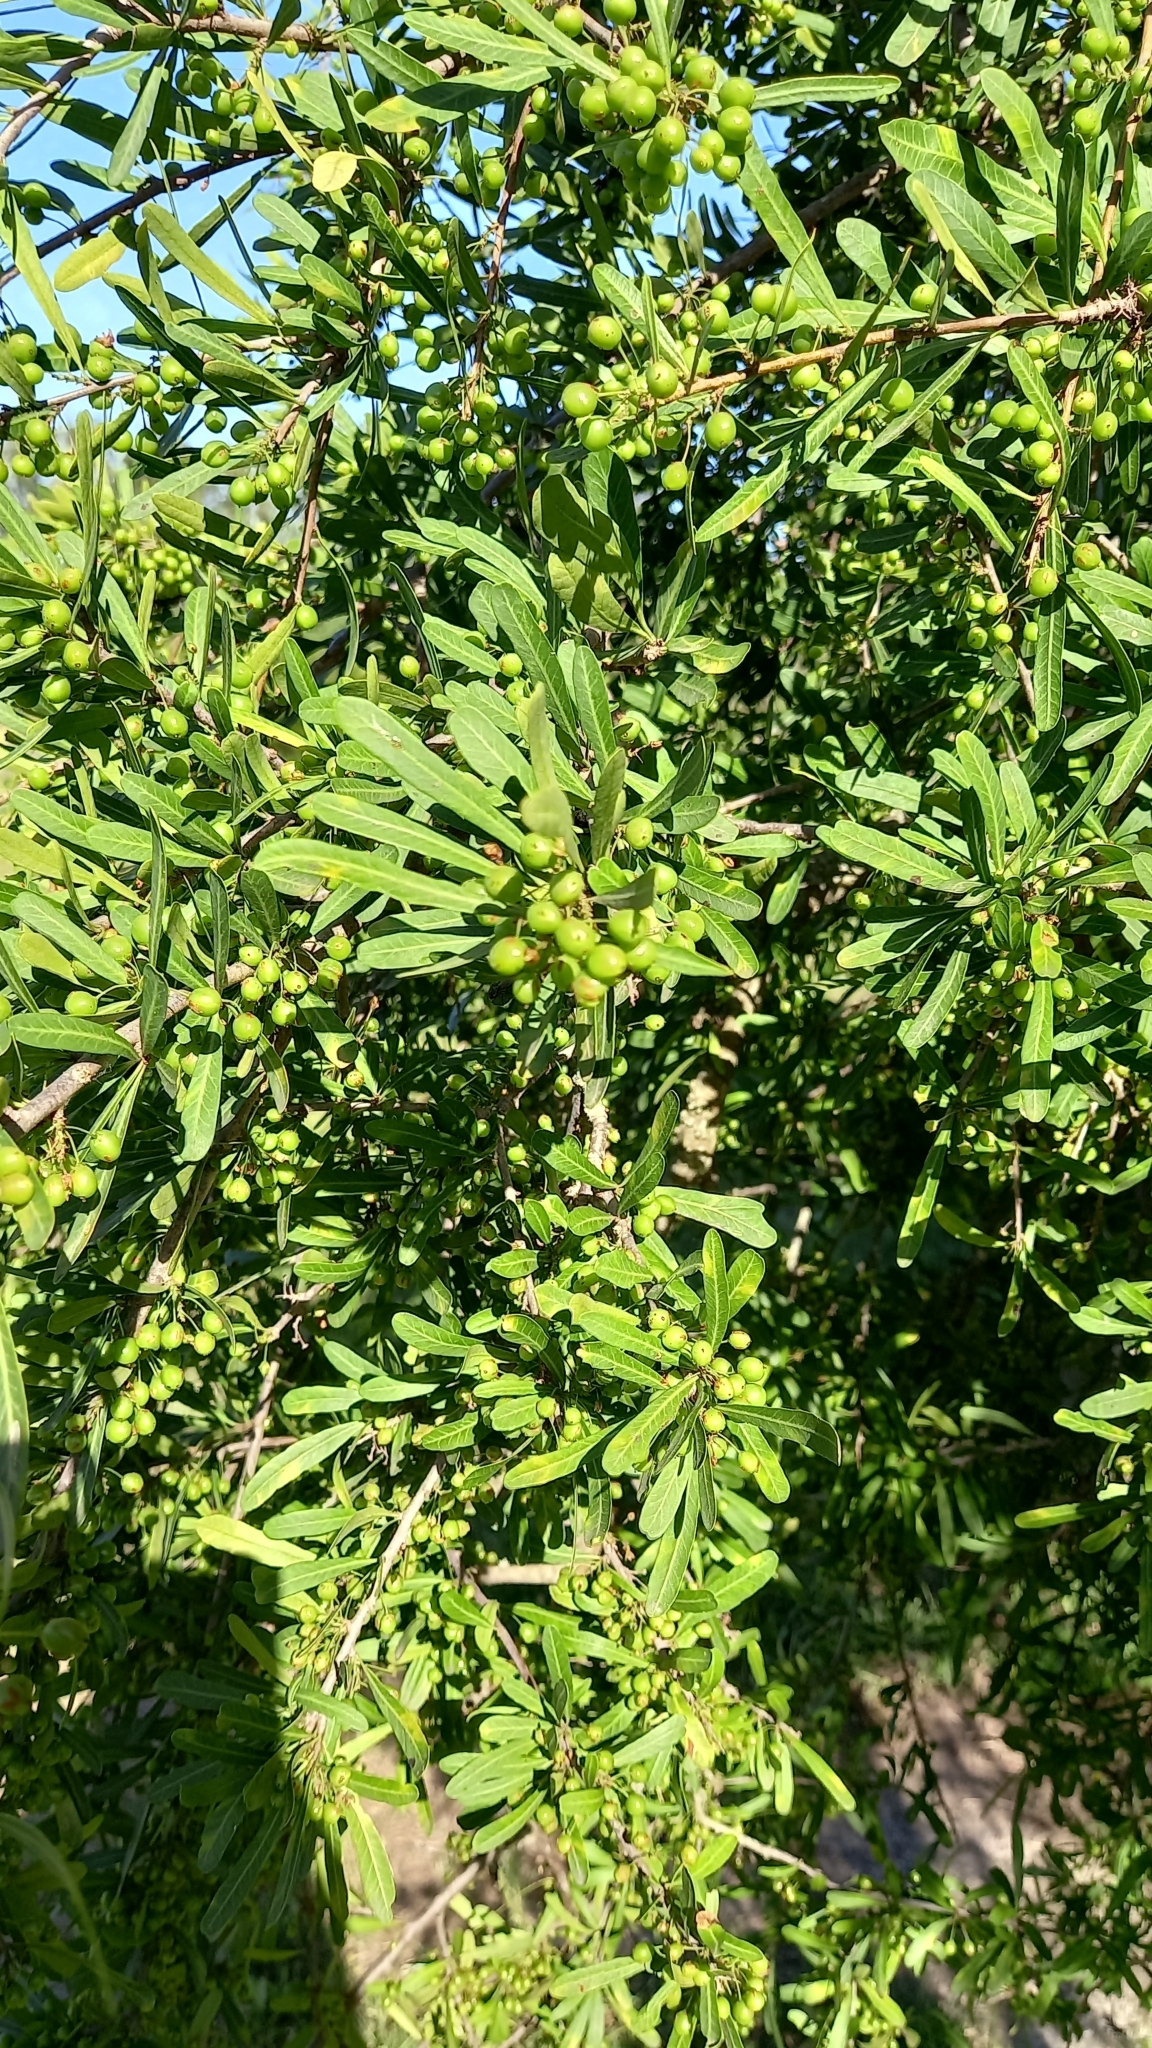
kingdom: Plantae
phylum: Tracheophyta
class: Magnoliopsida
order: Sapindales
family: Anacardiaceae
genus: Schinus
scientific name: Schinus longifolia
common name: Longleaf peppertree
